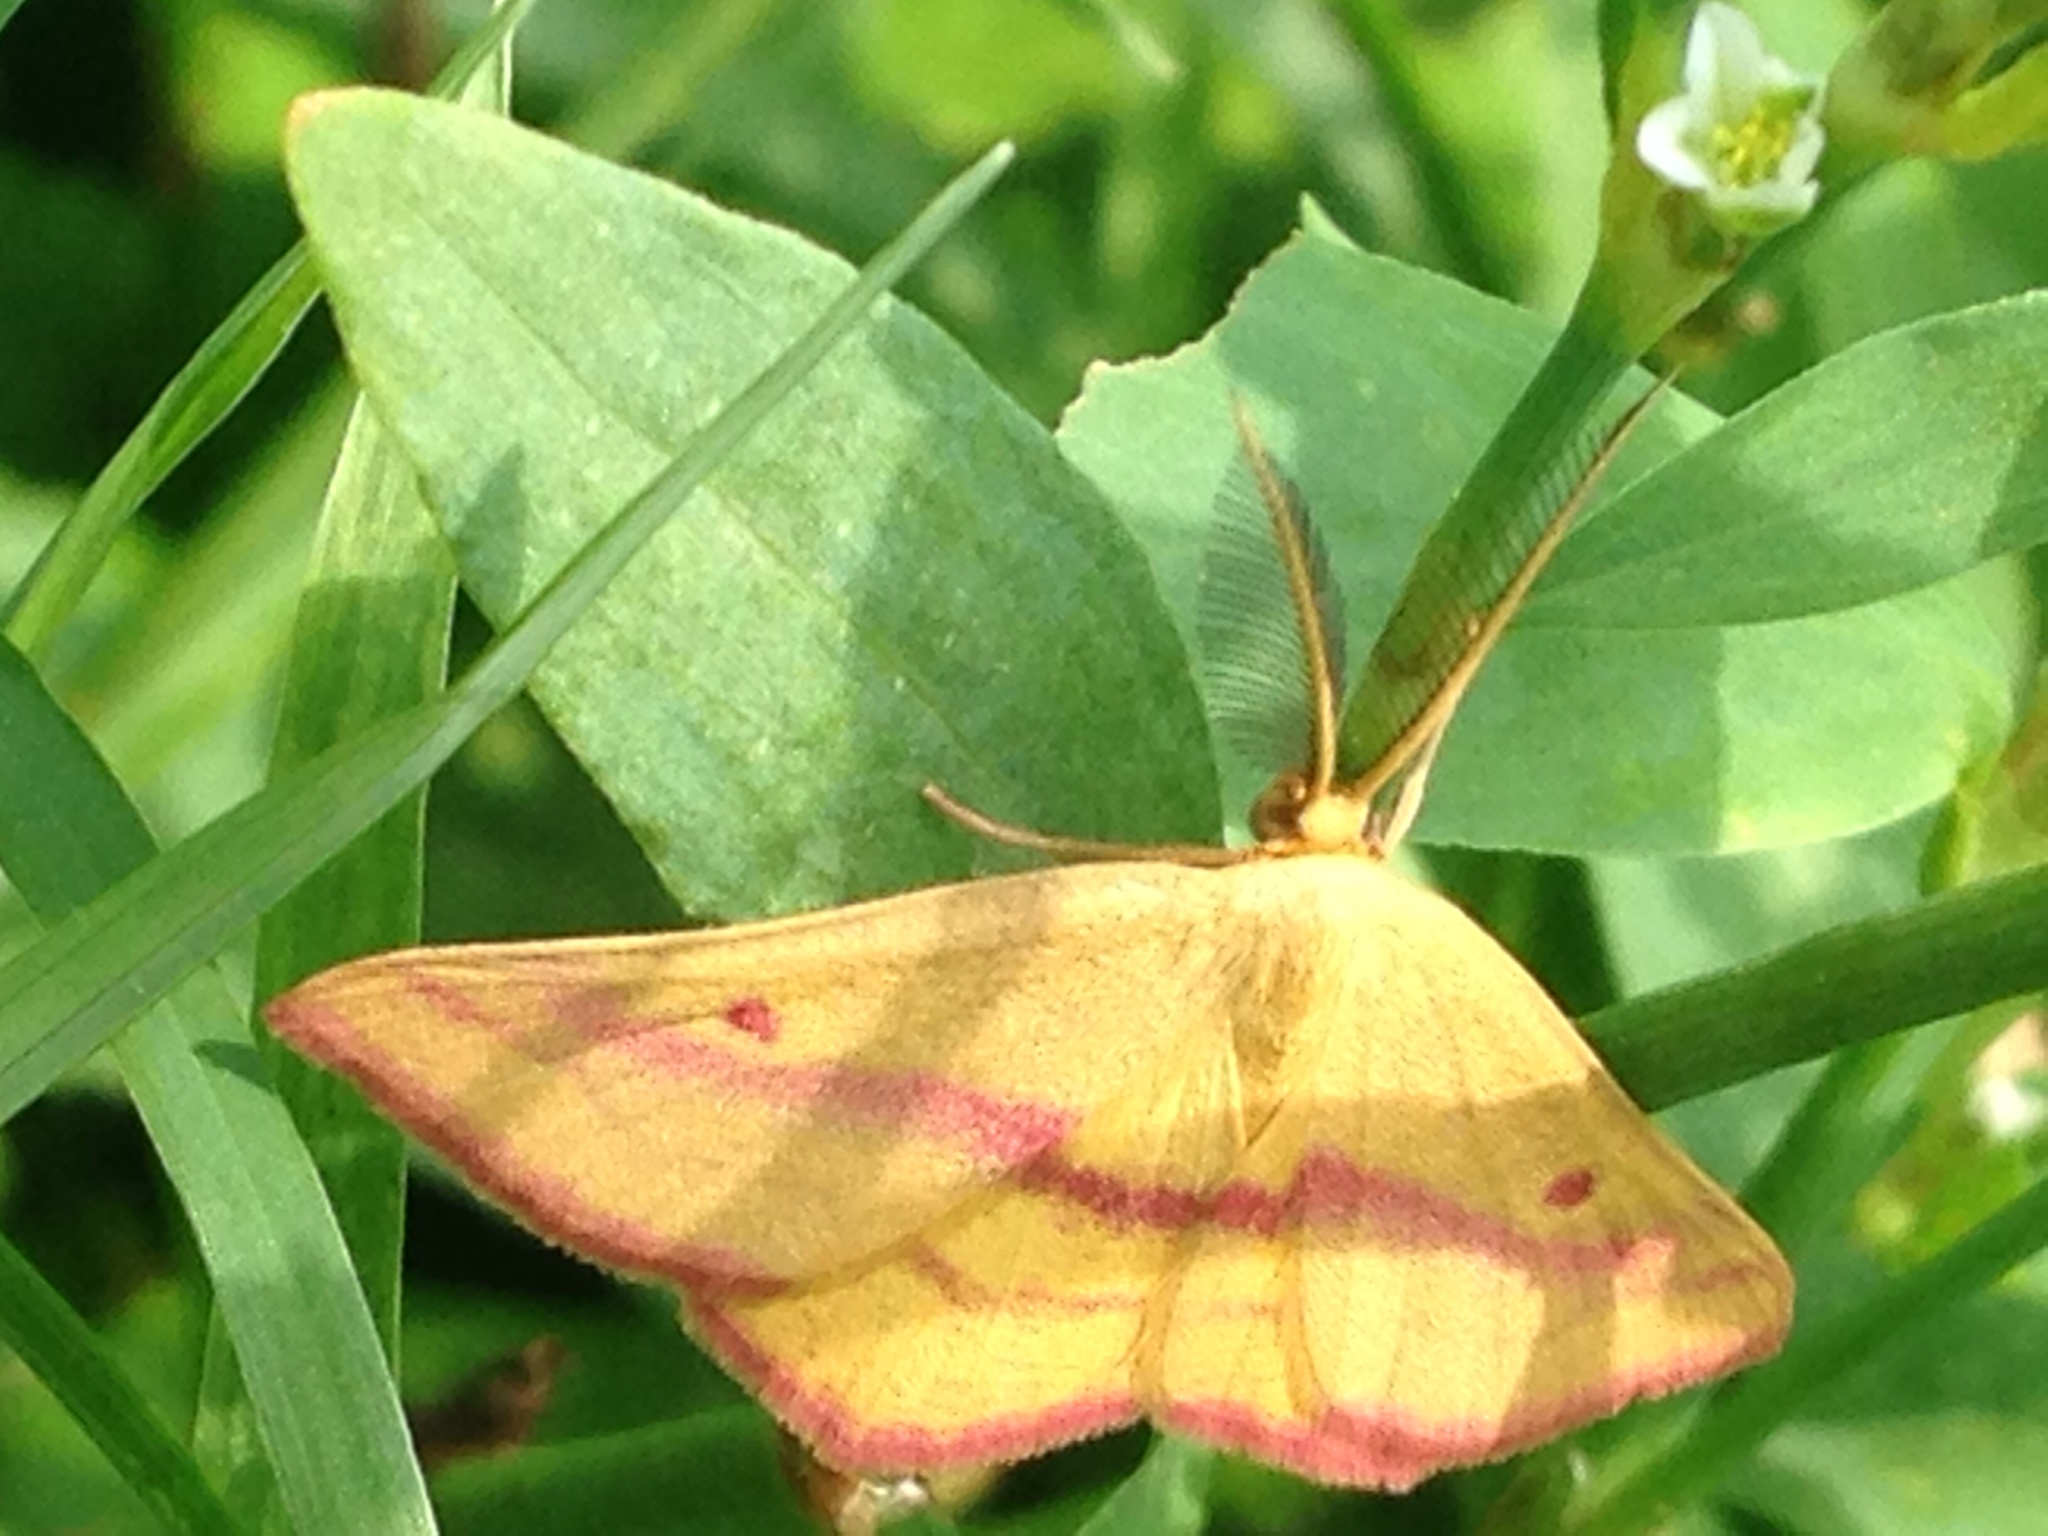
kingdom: Animalia
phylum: Arthropoda
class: Insecta
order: Lepidoptera
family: Geometridae
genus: Haematopis
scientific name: Haematopis grataria
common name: Chickweed geometer
